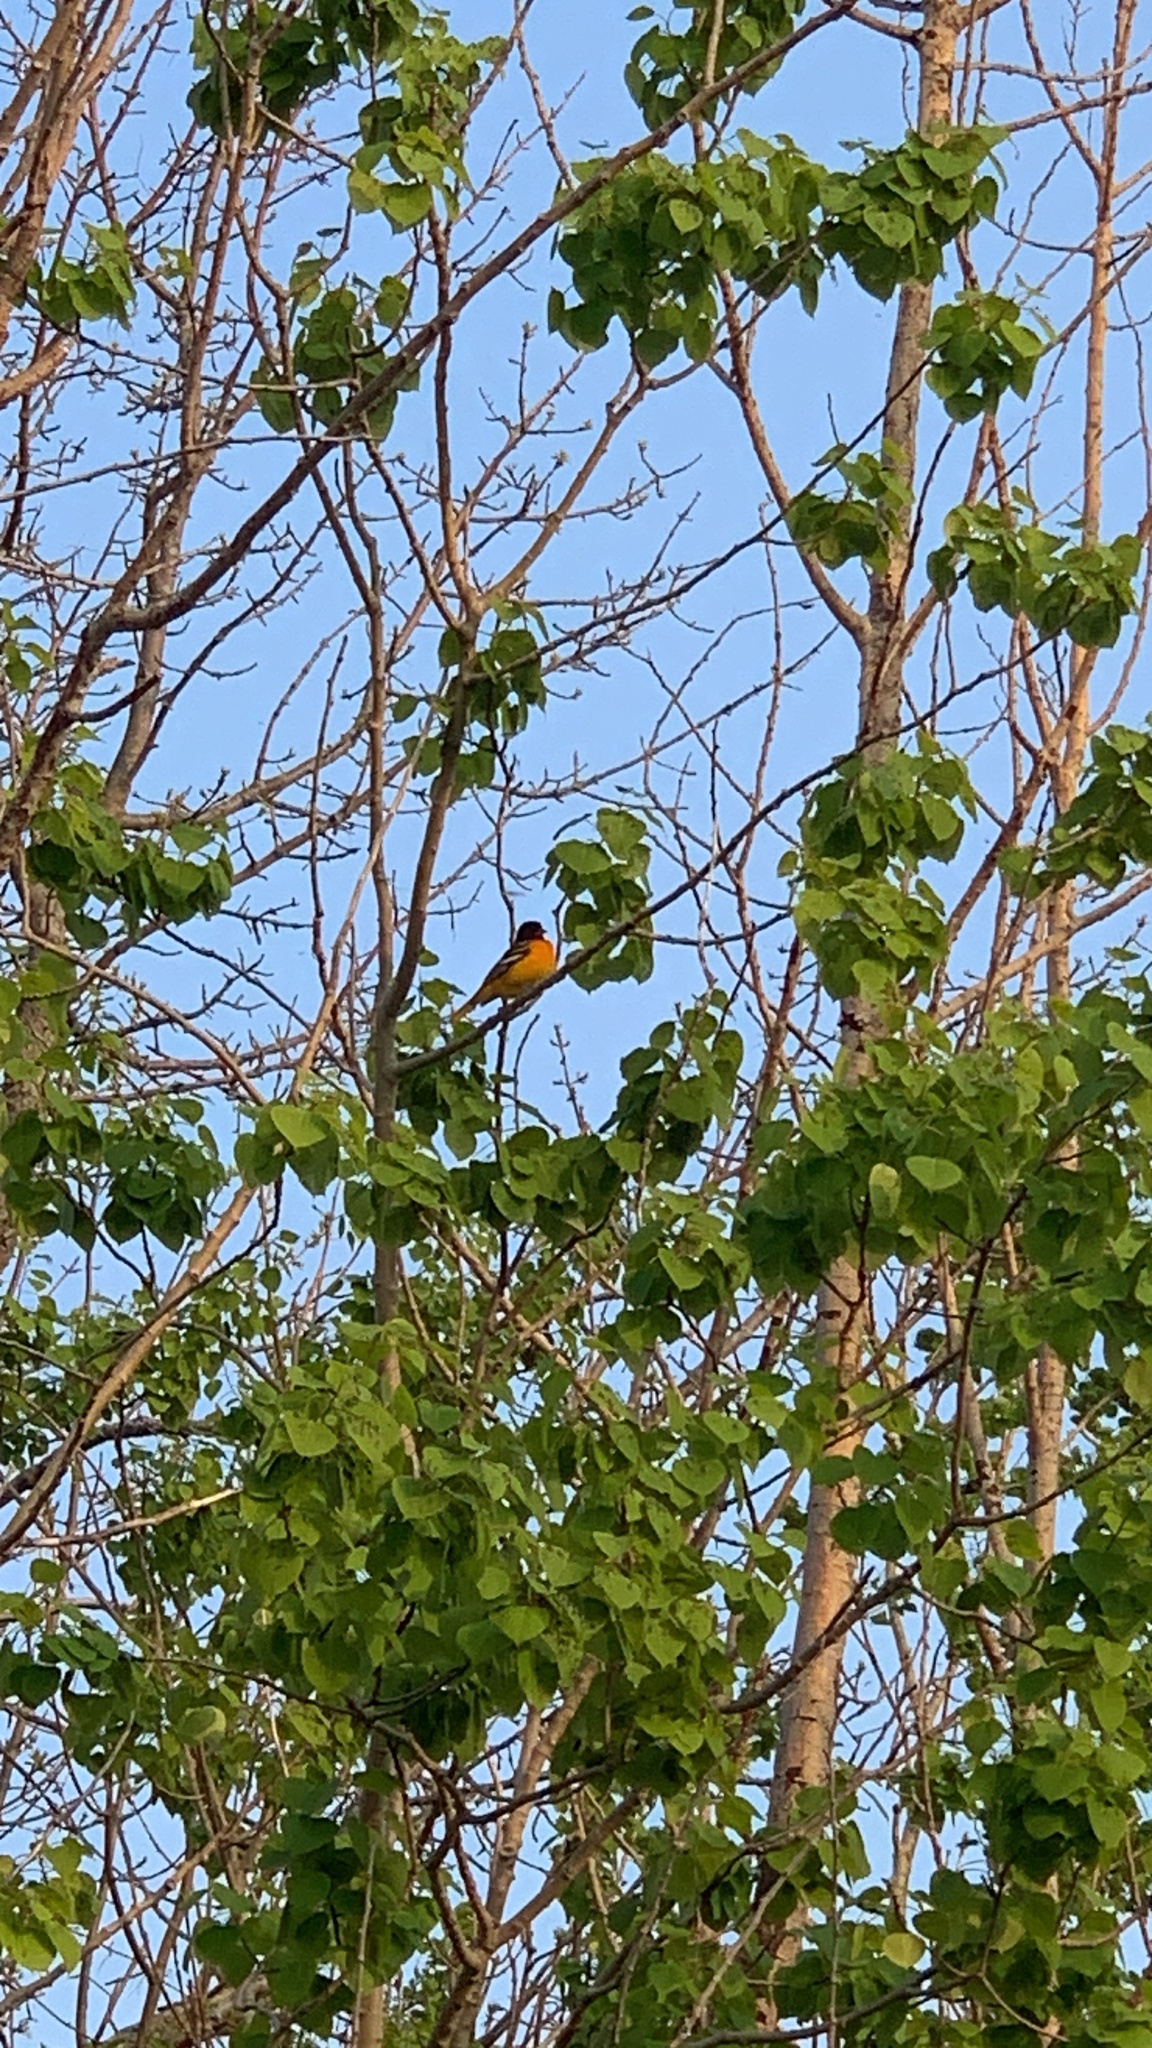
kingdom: Animalia
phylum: Chordata
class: Aves
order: Passeriformes
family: Icteridae
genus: Icterus
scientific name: Icterus galbula
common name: Baltimore oriole
